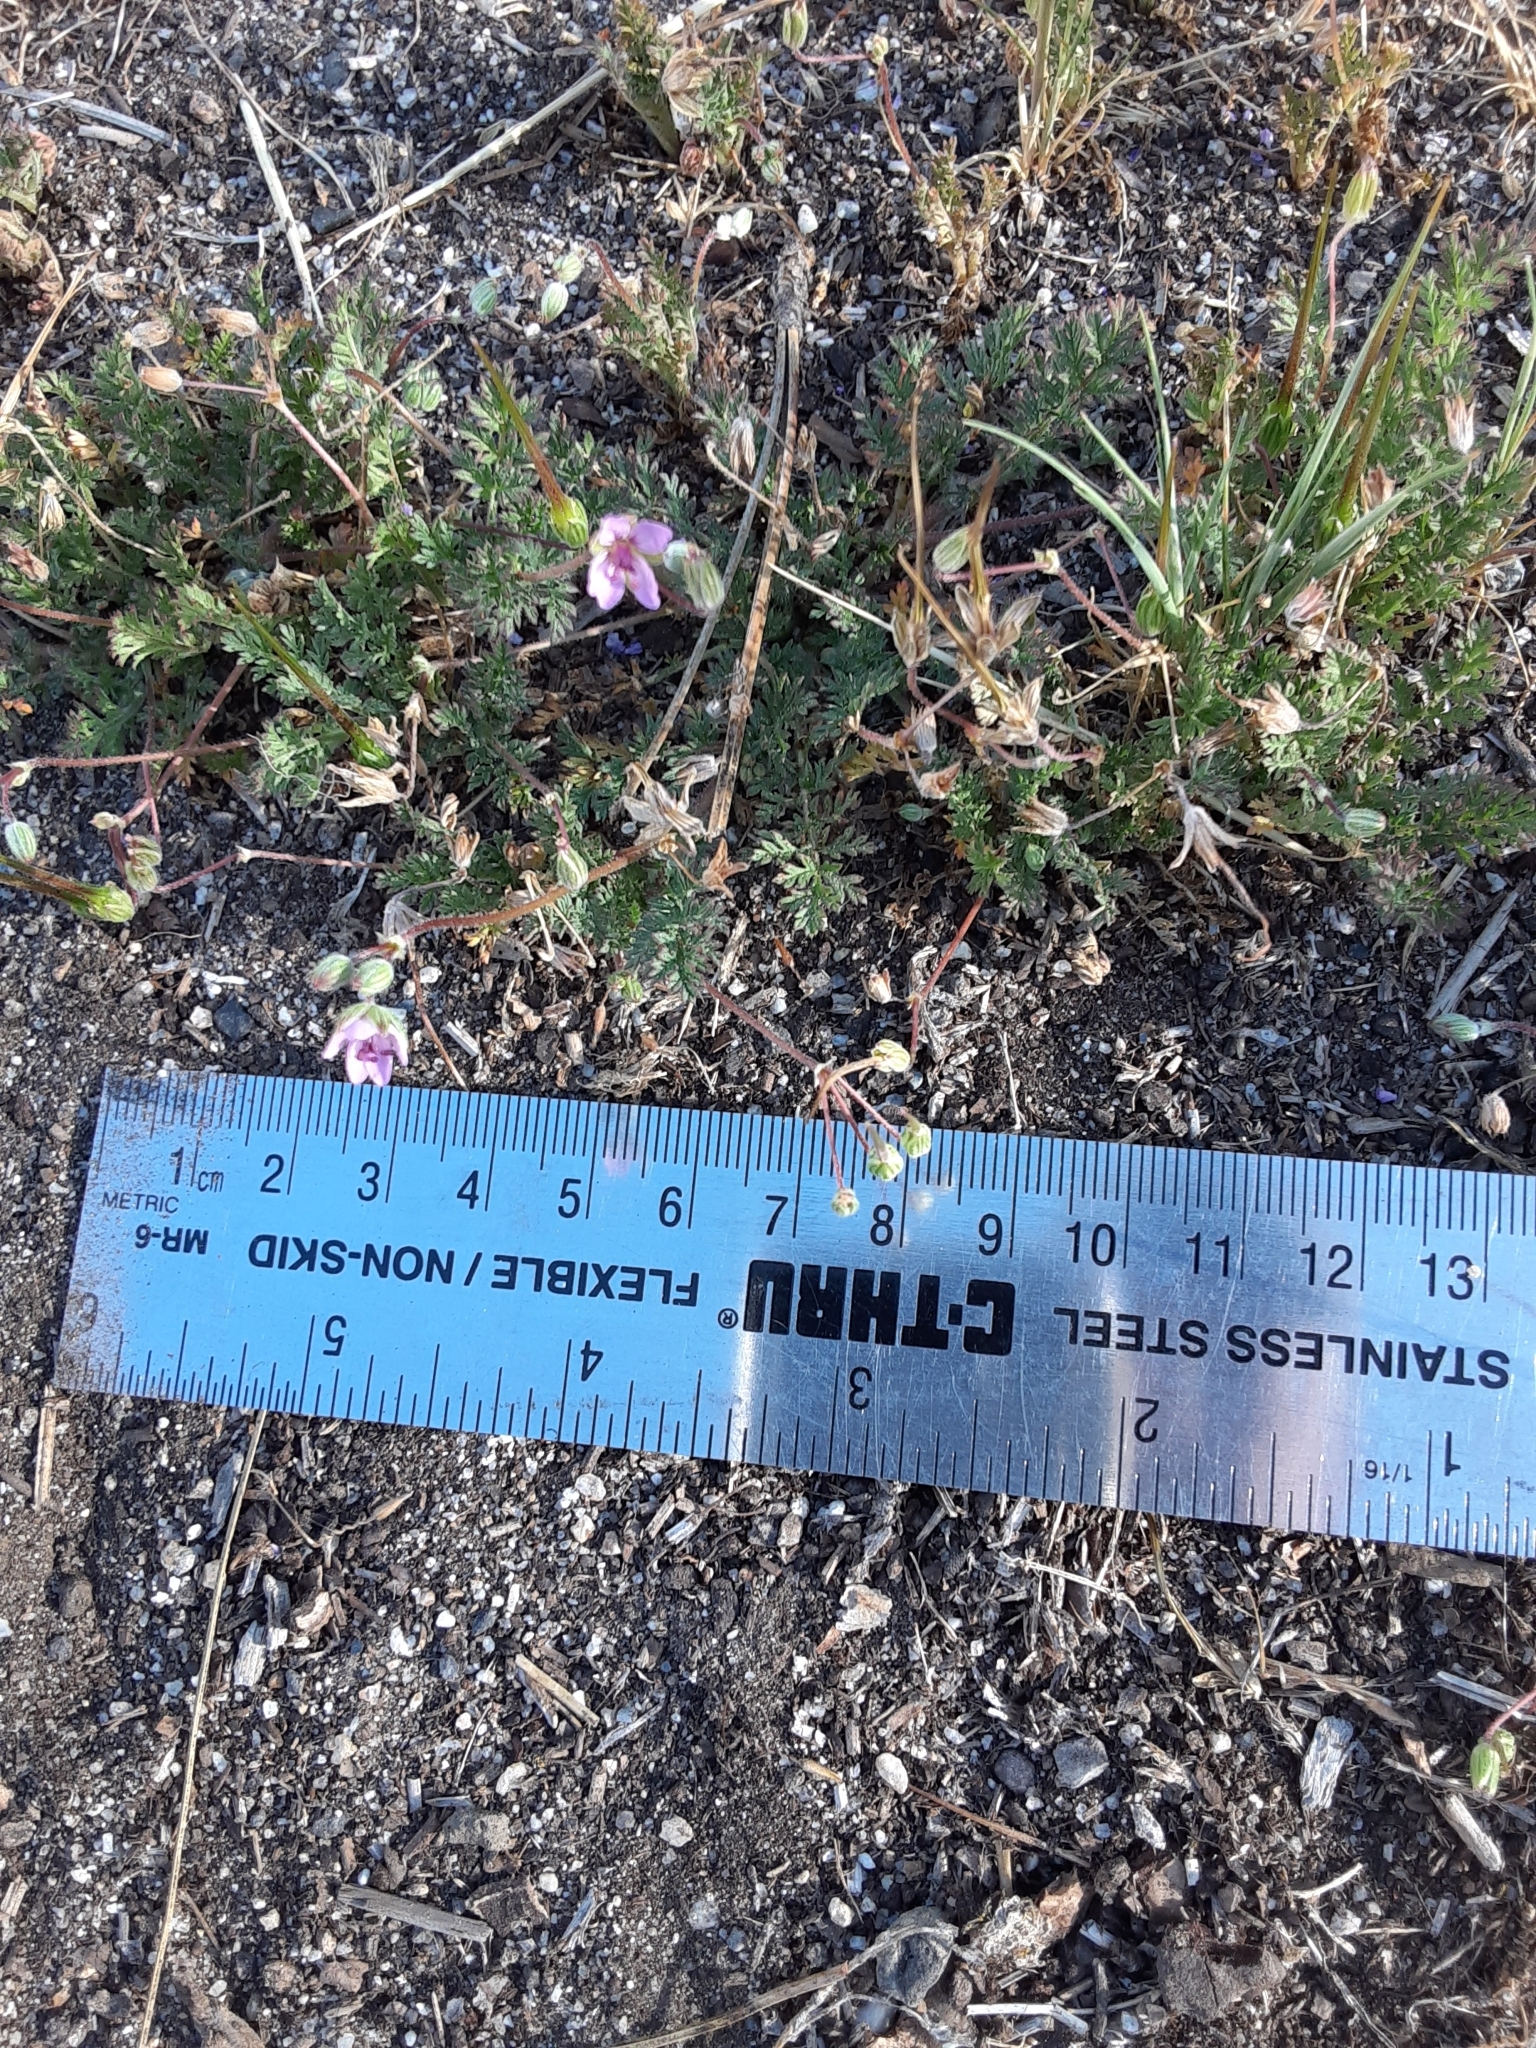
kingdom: Plantae
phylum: Tracheophyta
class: Magnoliopsida
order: Geraniales
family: Geraniaceae
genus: Erodium
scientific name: Erodium cicutarium
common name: Common stork's-bill
